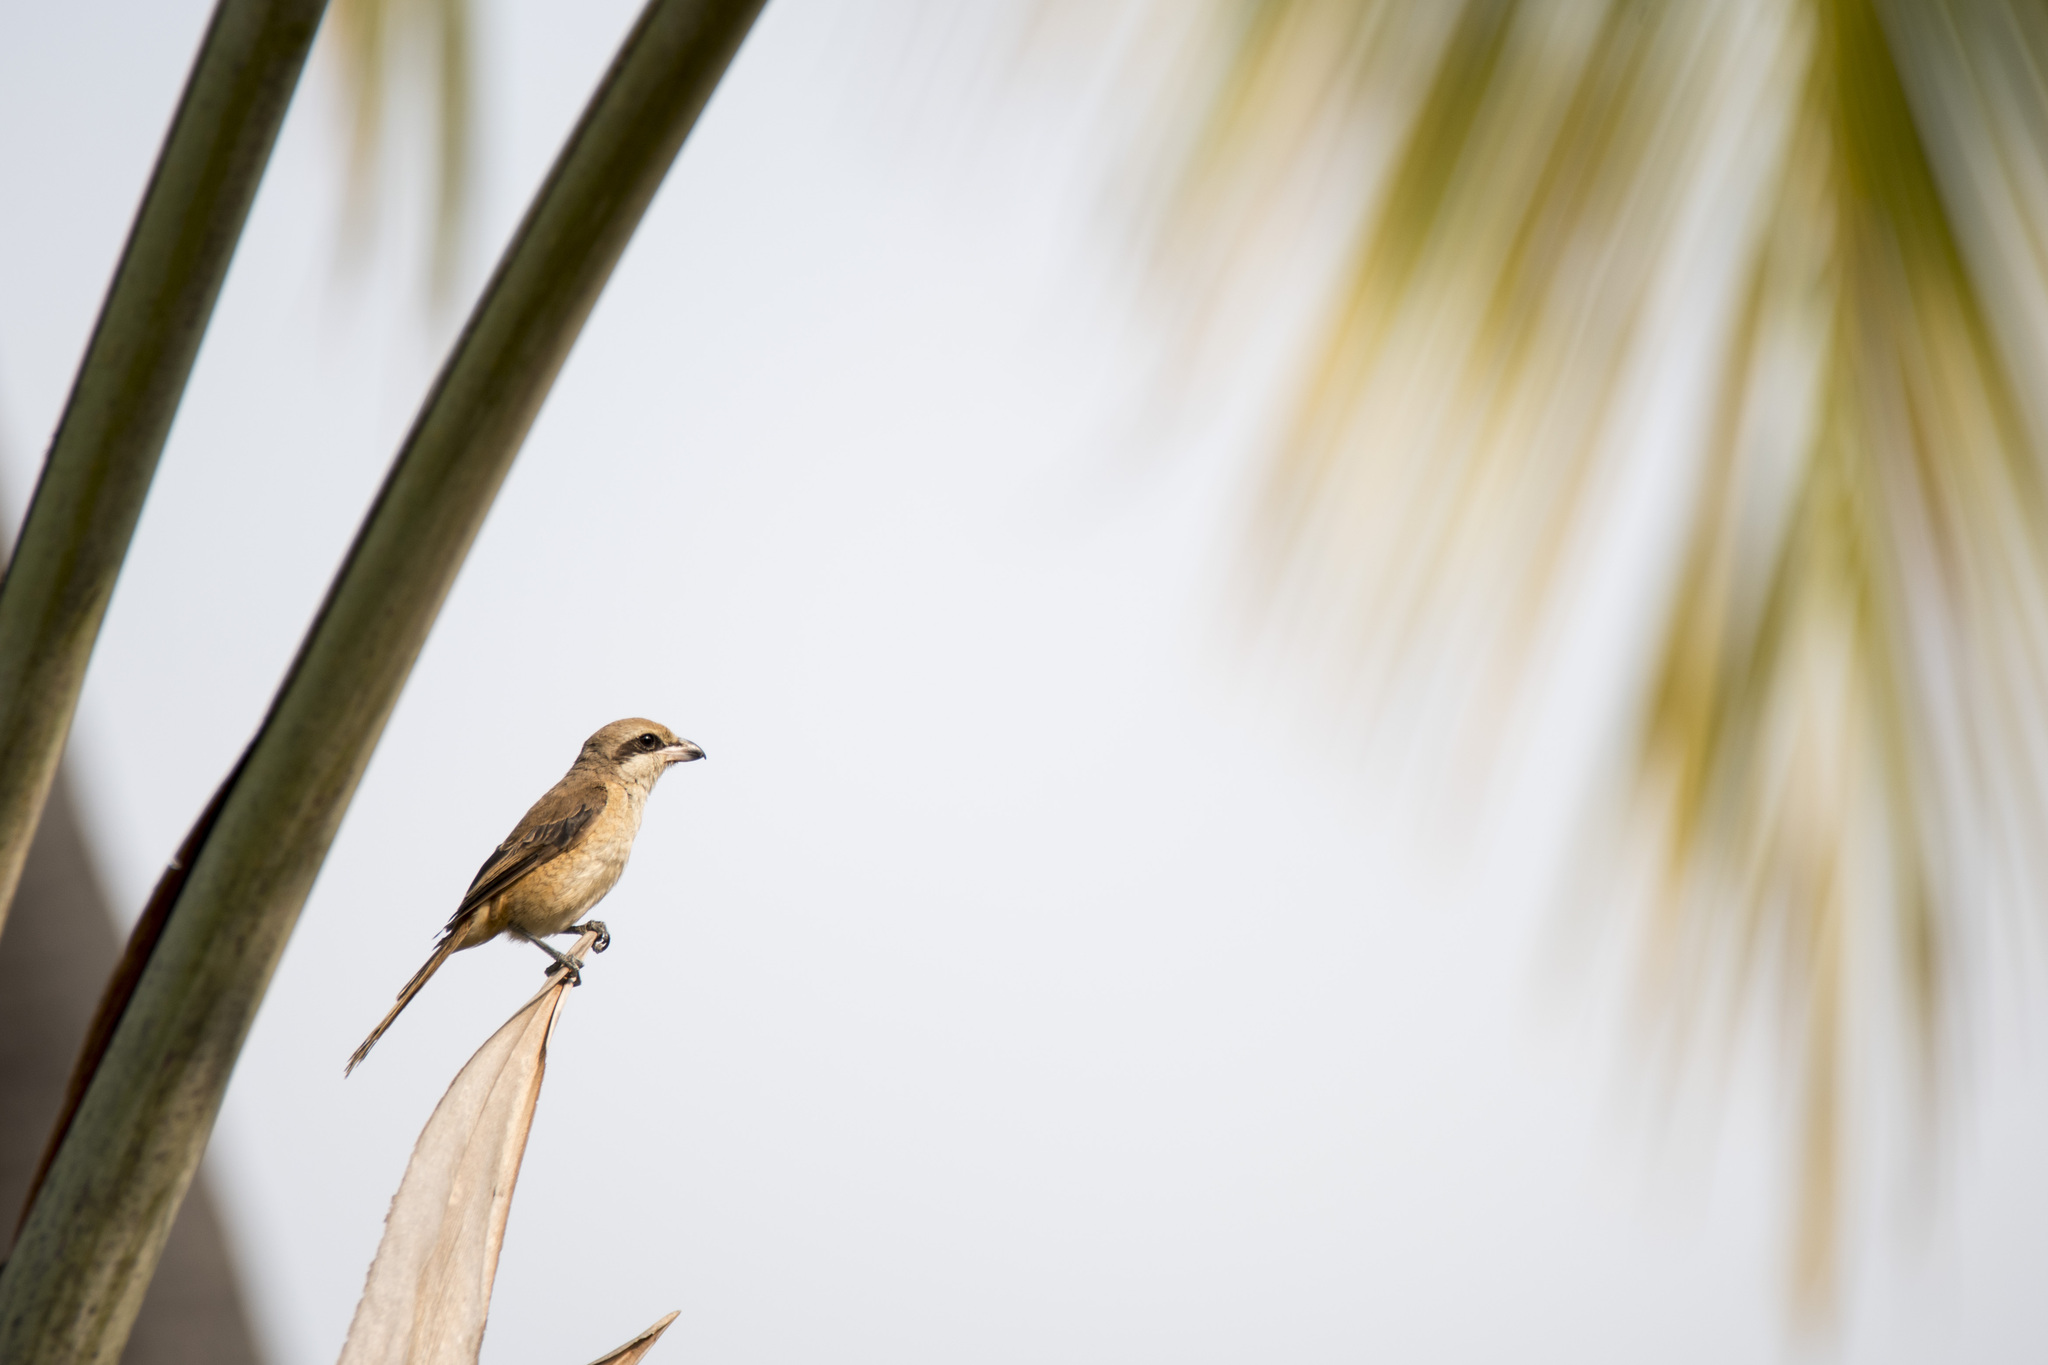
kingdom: Animalia
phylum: Chordata
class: Aves
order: Passeriformes
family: Laniidae
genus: Lanius
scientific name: Lanius cristatus
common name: Brown shrike
